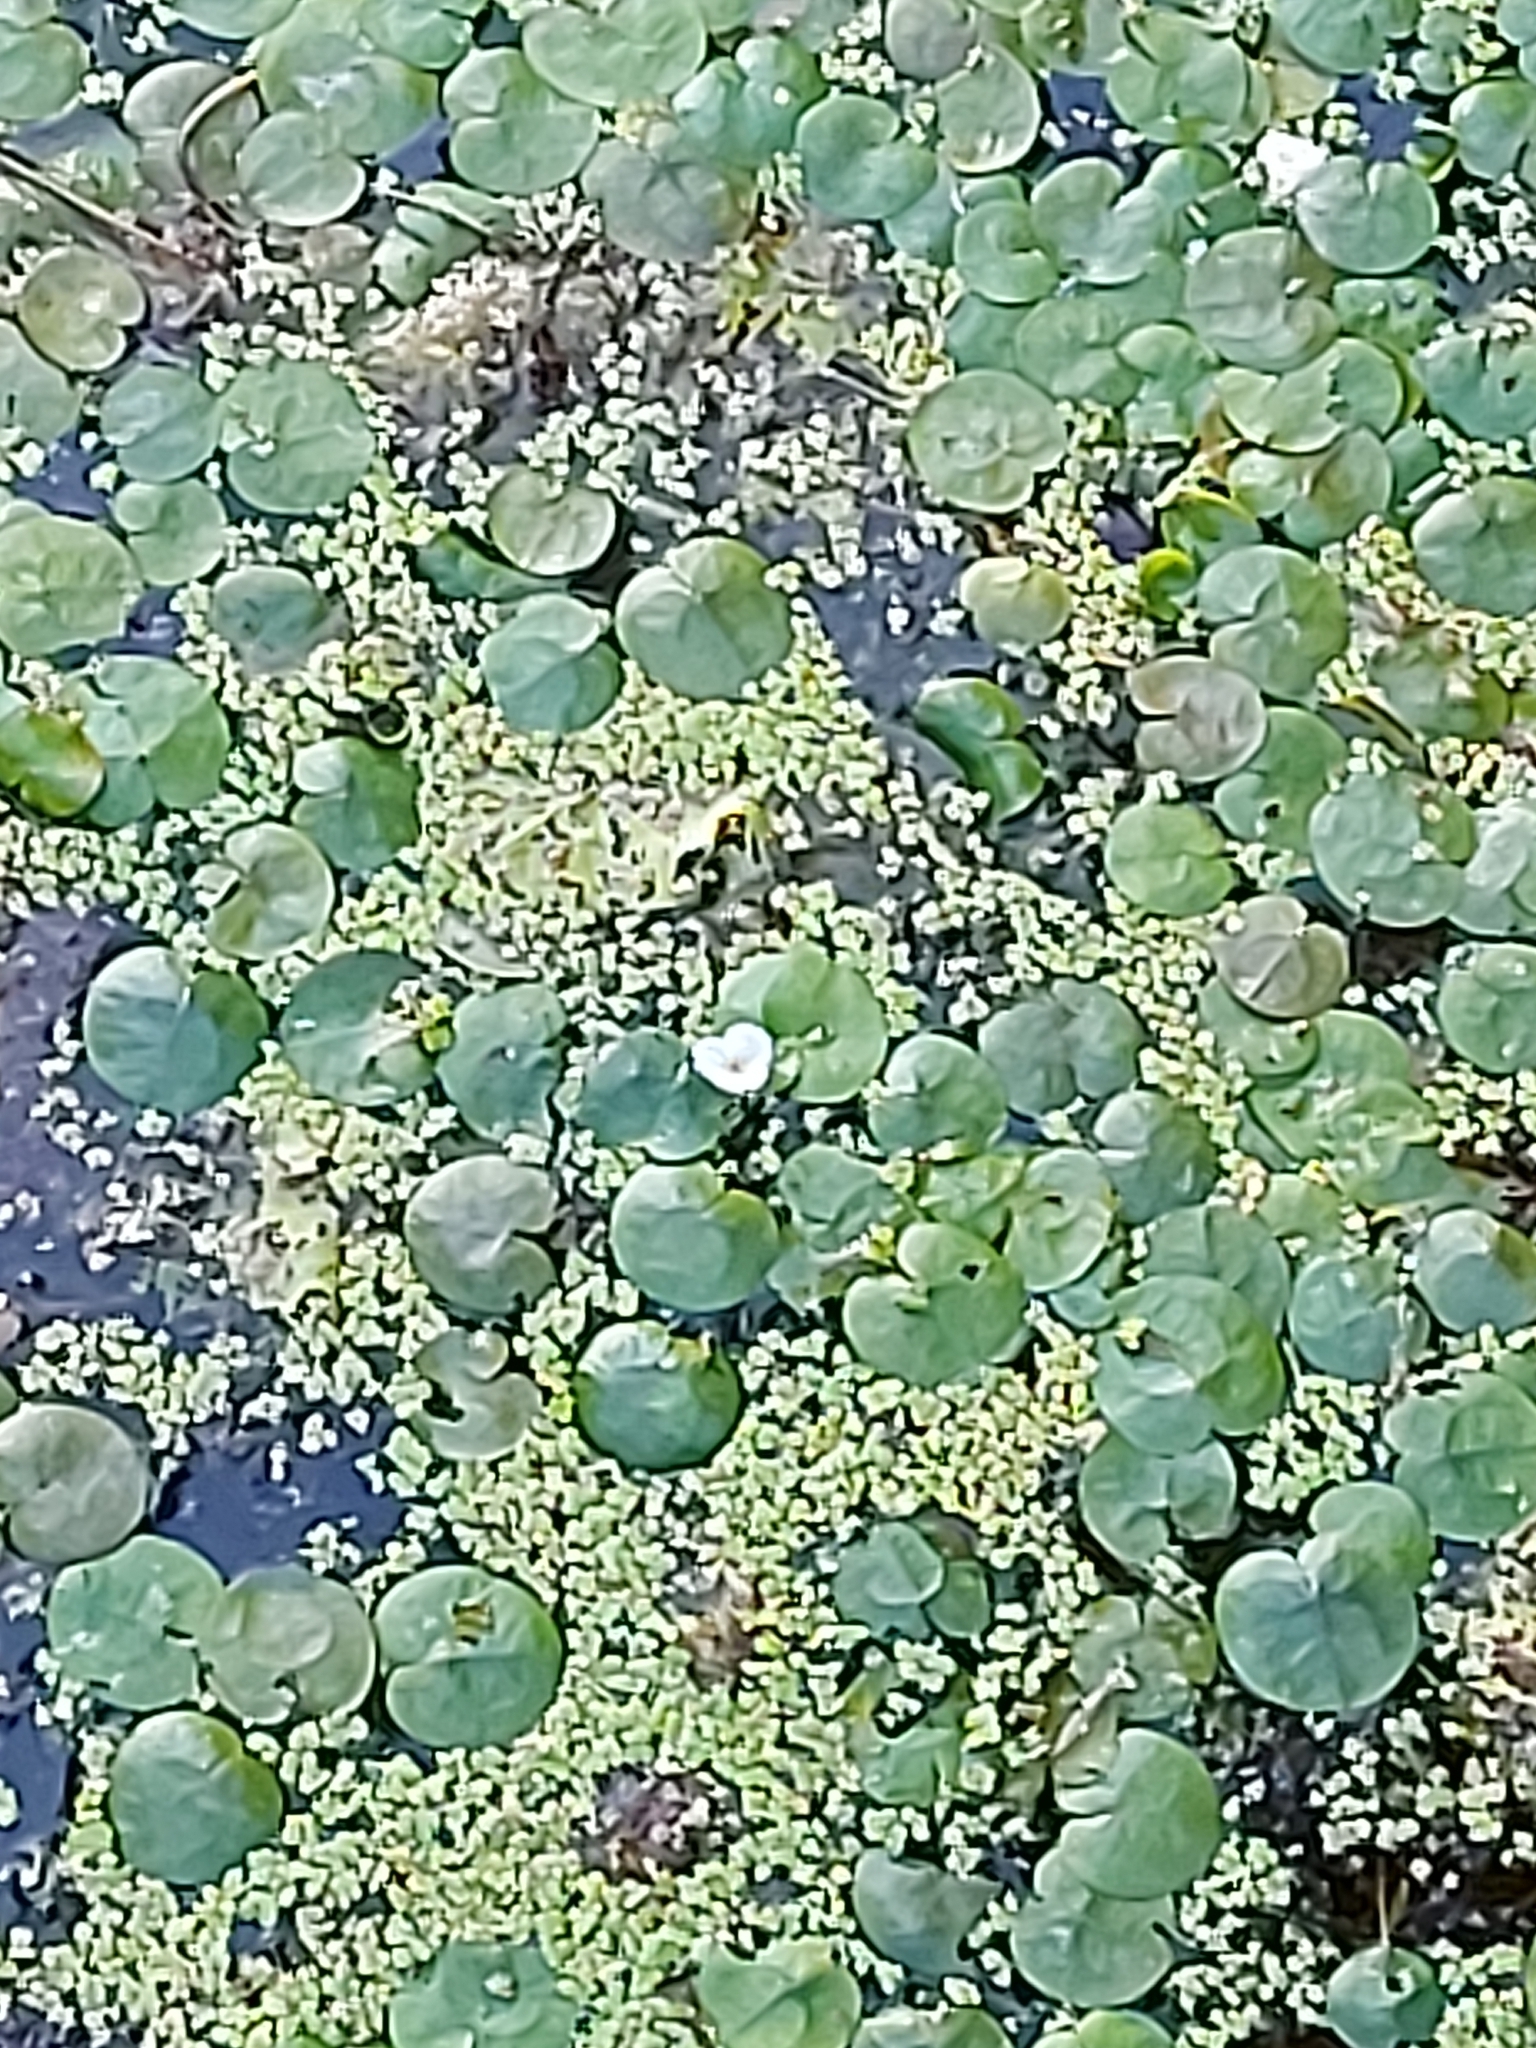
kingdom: Plantae
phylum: Tracheophyta
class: Liliopsida
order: Alismatales
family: Hydrocharitaceae
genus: Hydrocharis
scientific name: Hydrocharis morsus-ranae
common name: Frogbit
